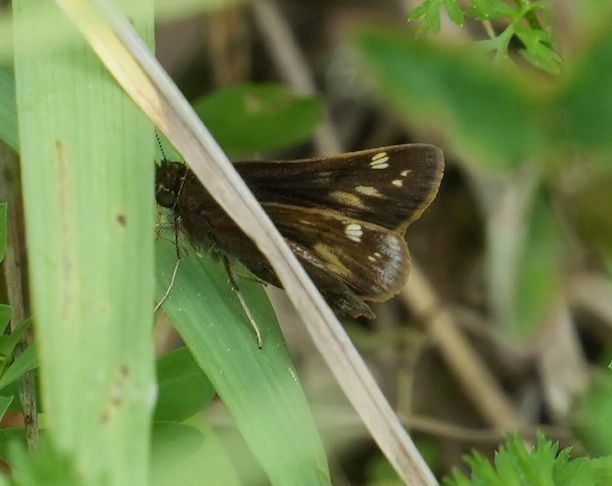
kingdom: Animalia
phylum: Arthropoda
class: Insecta
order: Lepidoptera
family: Hesperiidae
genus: Lon
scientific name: Lon hobomok
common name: Hobomok skipper
